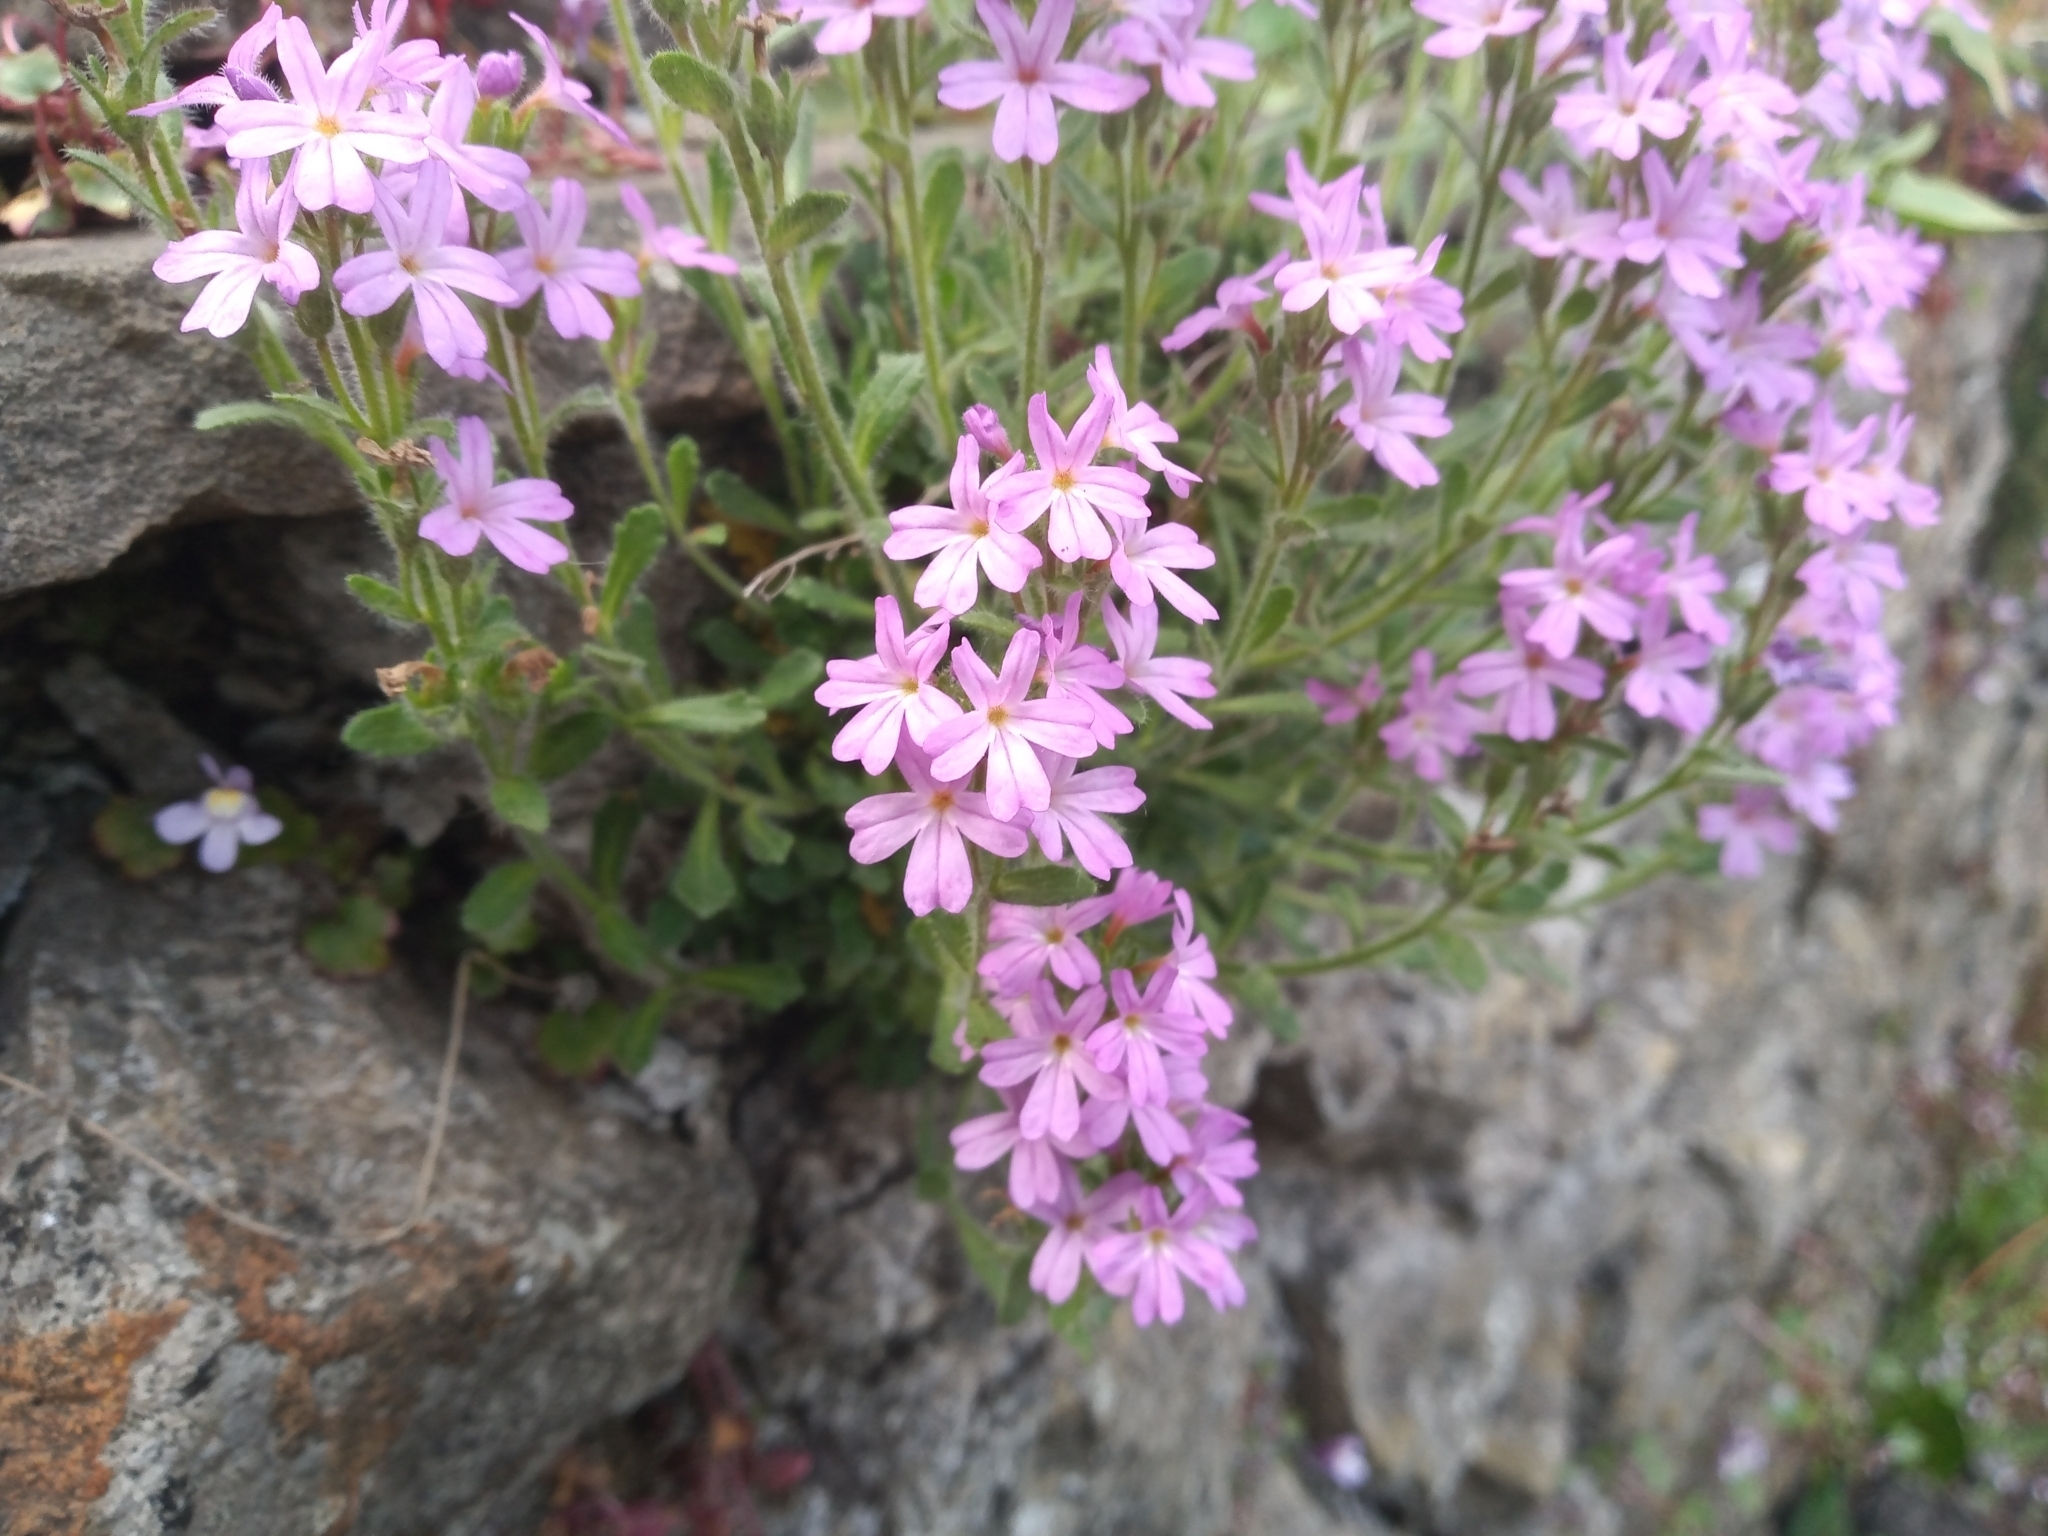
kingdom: Plantae
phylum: Tracheophyta
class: Magnoliopsida
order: Lamiales
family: Plantaginaceae
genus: Erinus
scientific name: Erinus alpinus
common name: Fairy foxglove
